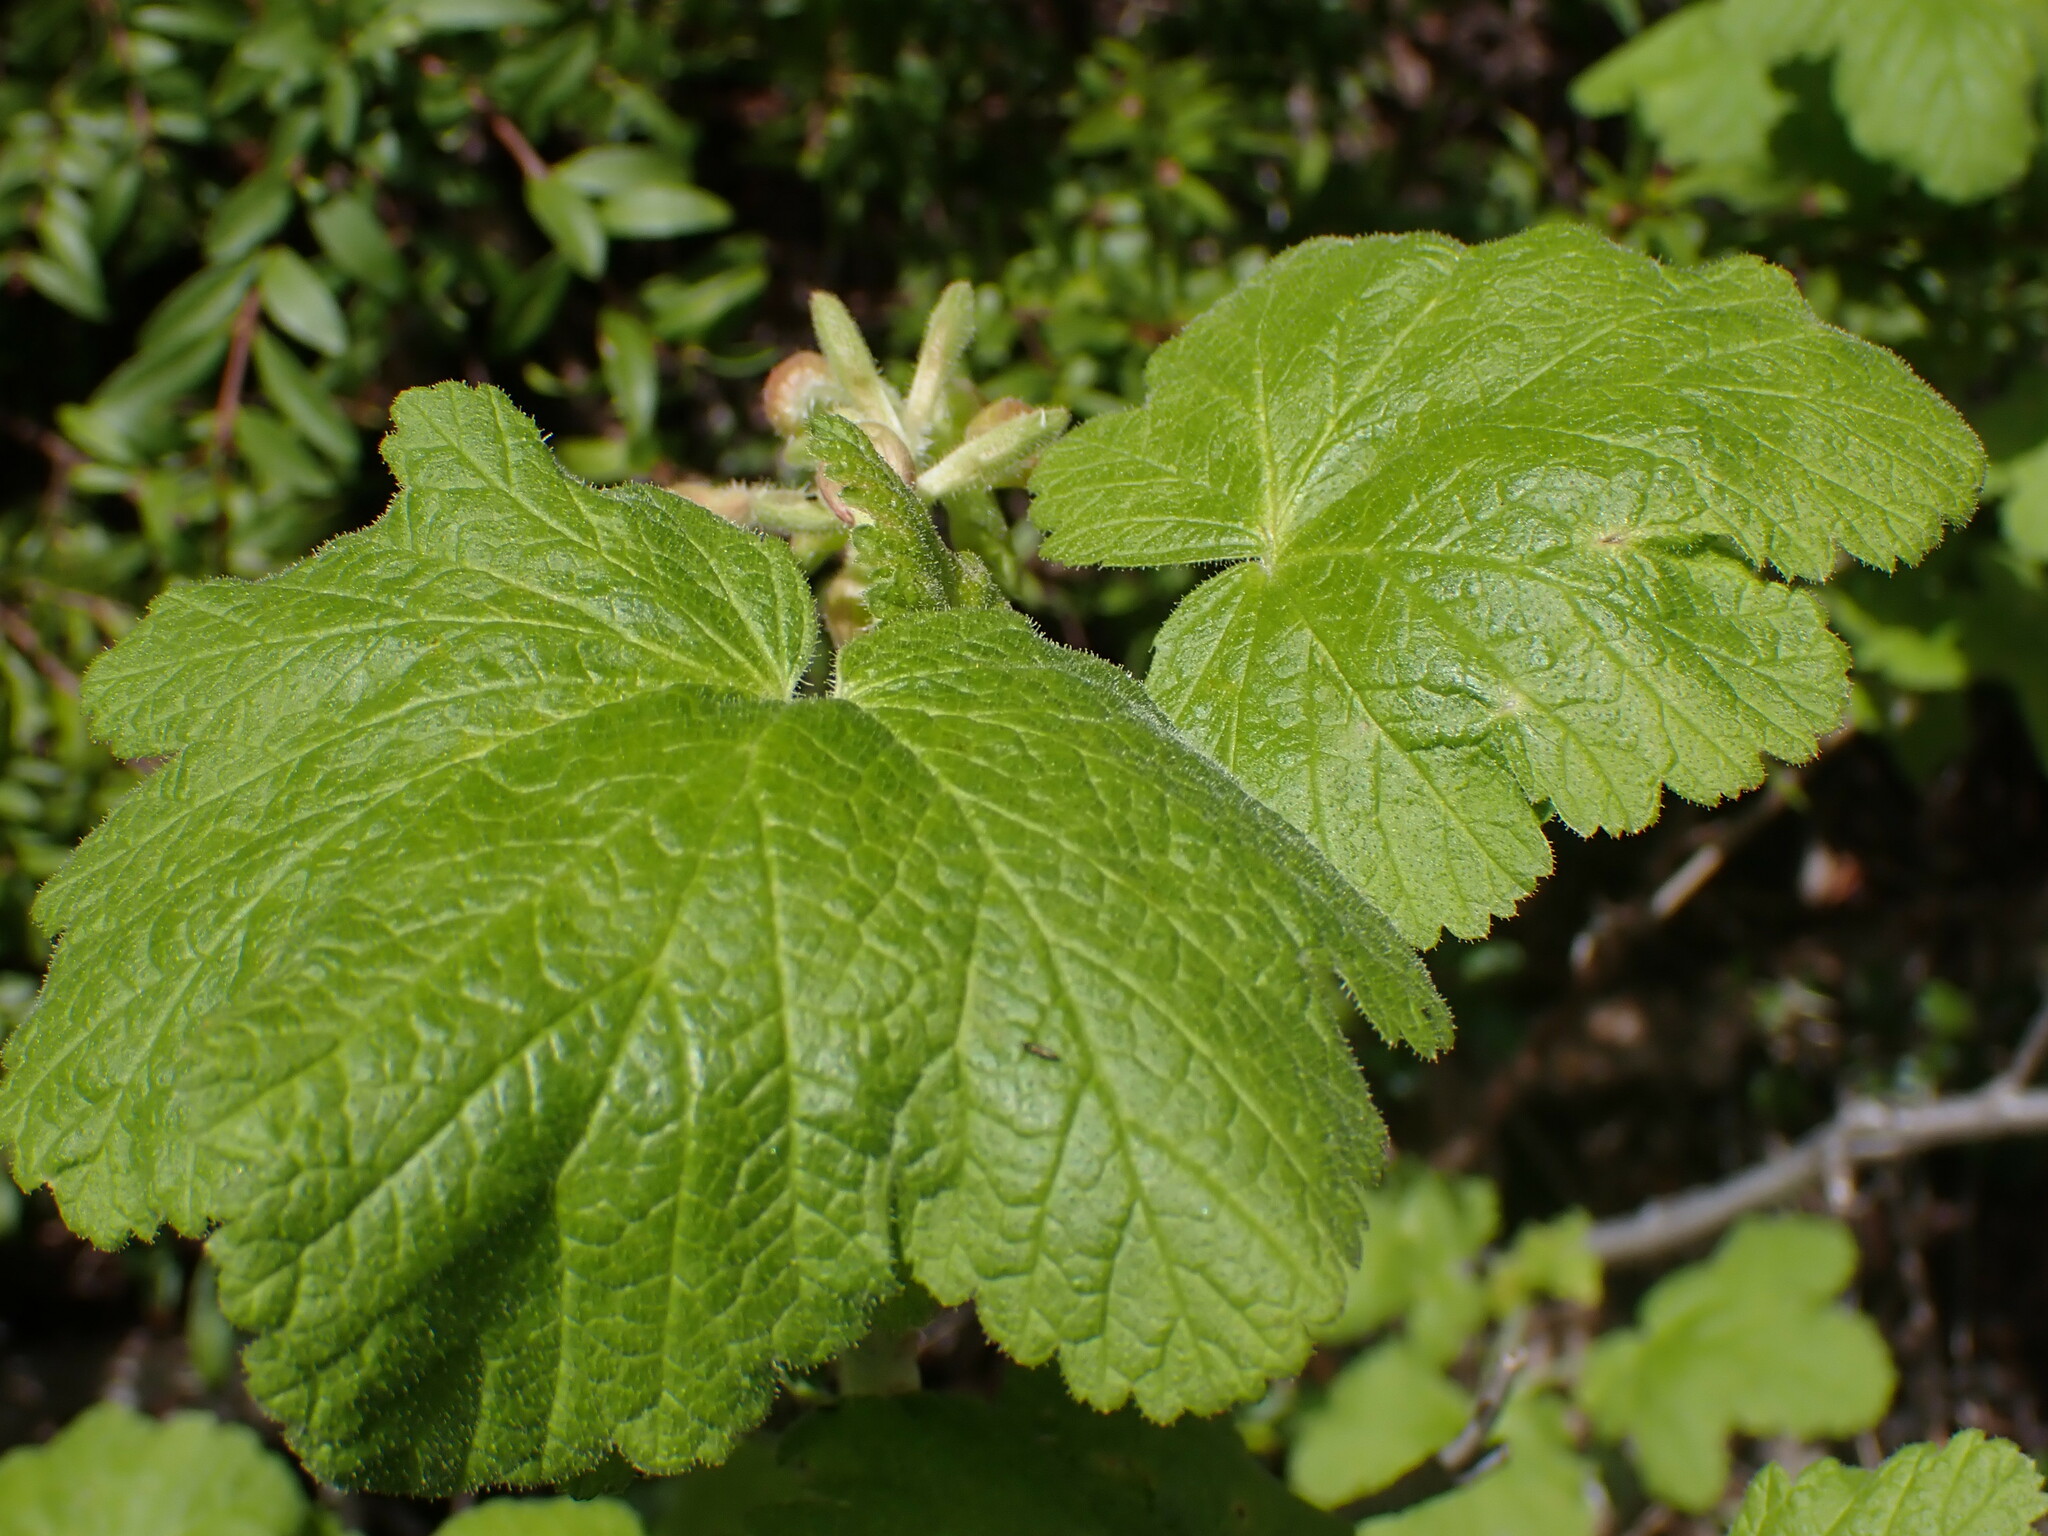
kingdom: Plantae
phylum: Tracheophyta
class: Magnoliopsida
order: Saxifragales
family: Grossulariaceae
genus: Ribes
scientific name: Ribes viscosissimum
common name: Sticky currant
